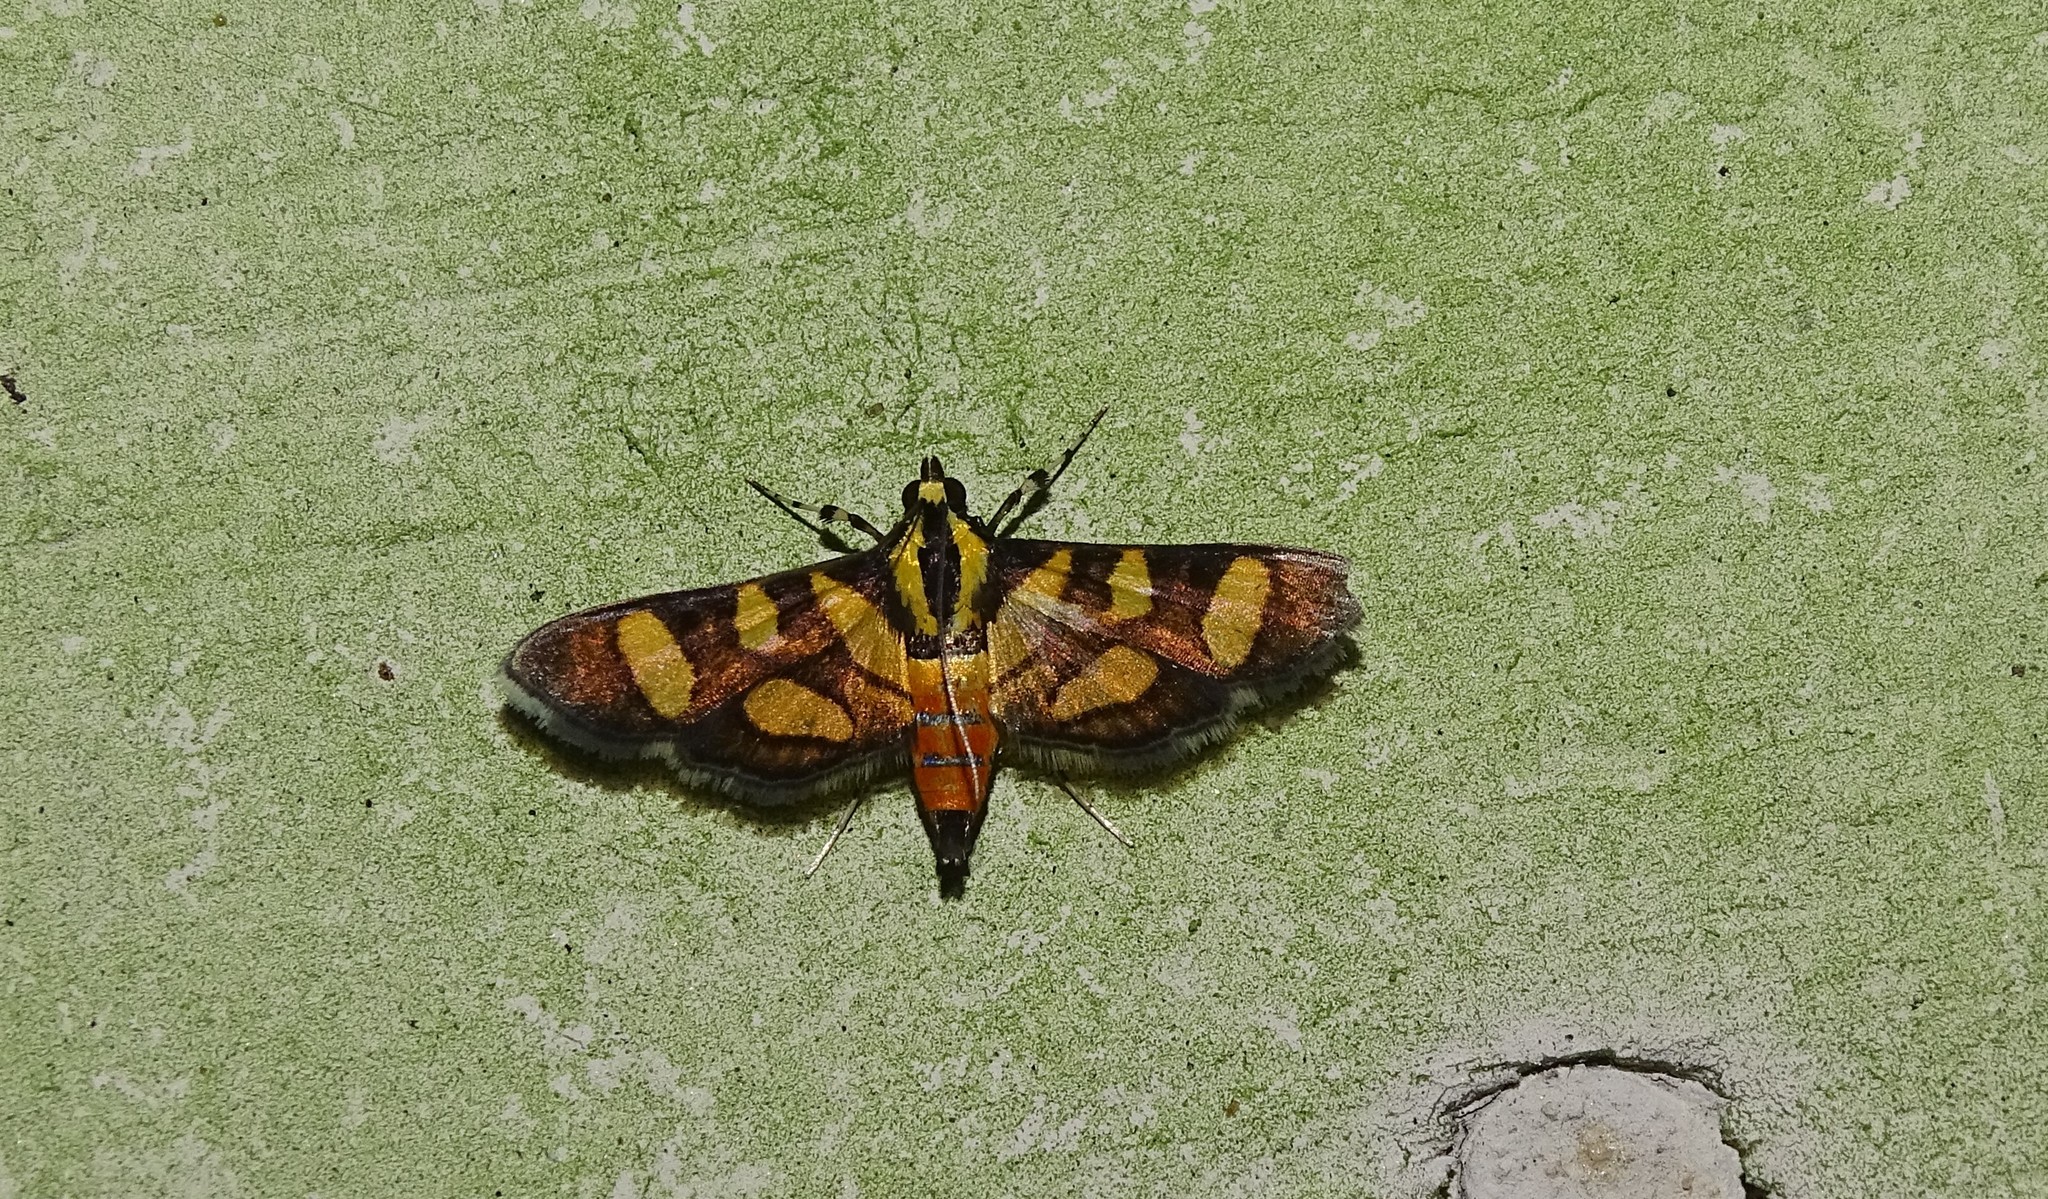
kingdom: Animalia
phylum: Arthropoda
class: Insecta
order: Lepidoptera
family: Crambidae
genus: Syngamia
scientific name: Syngamia florella
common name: Orange-spotted flower moth
